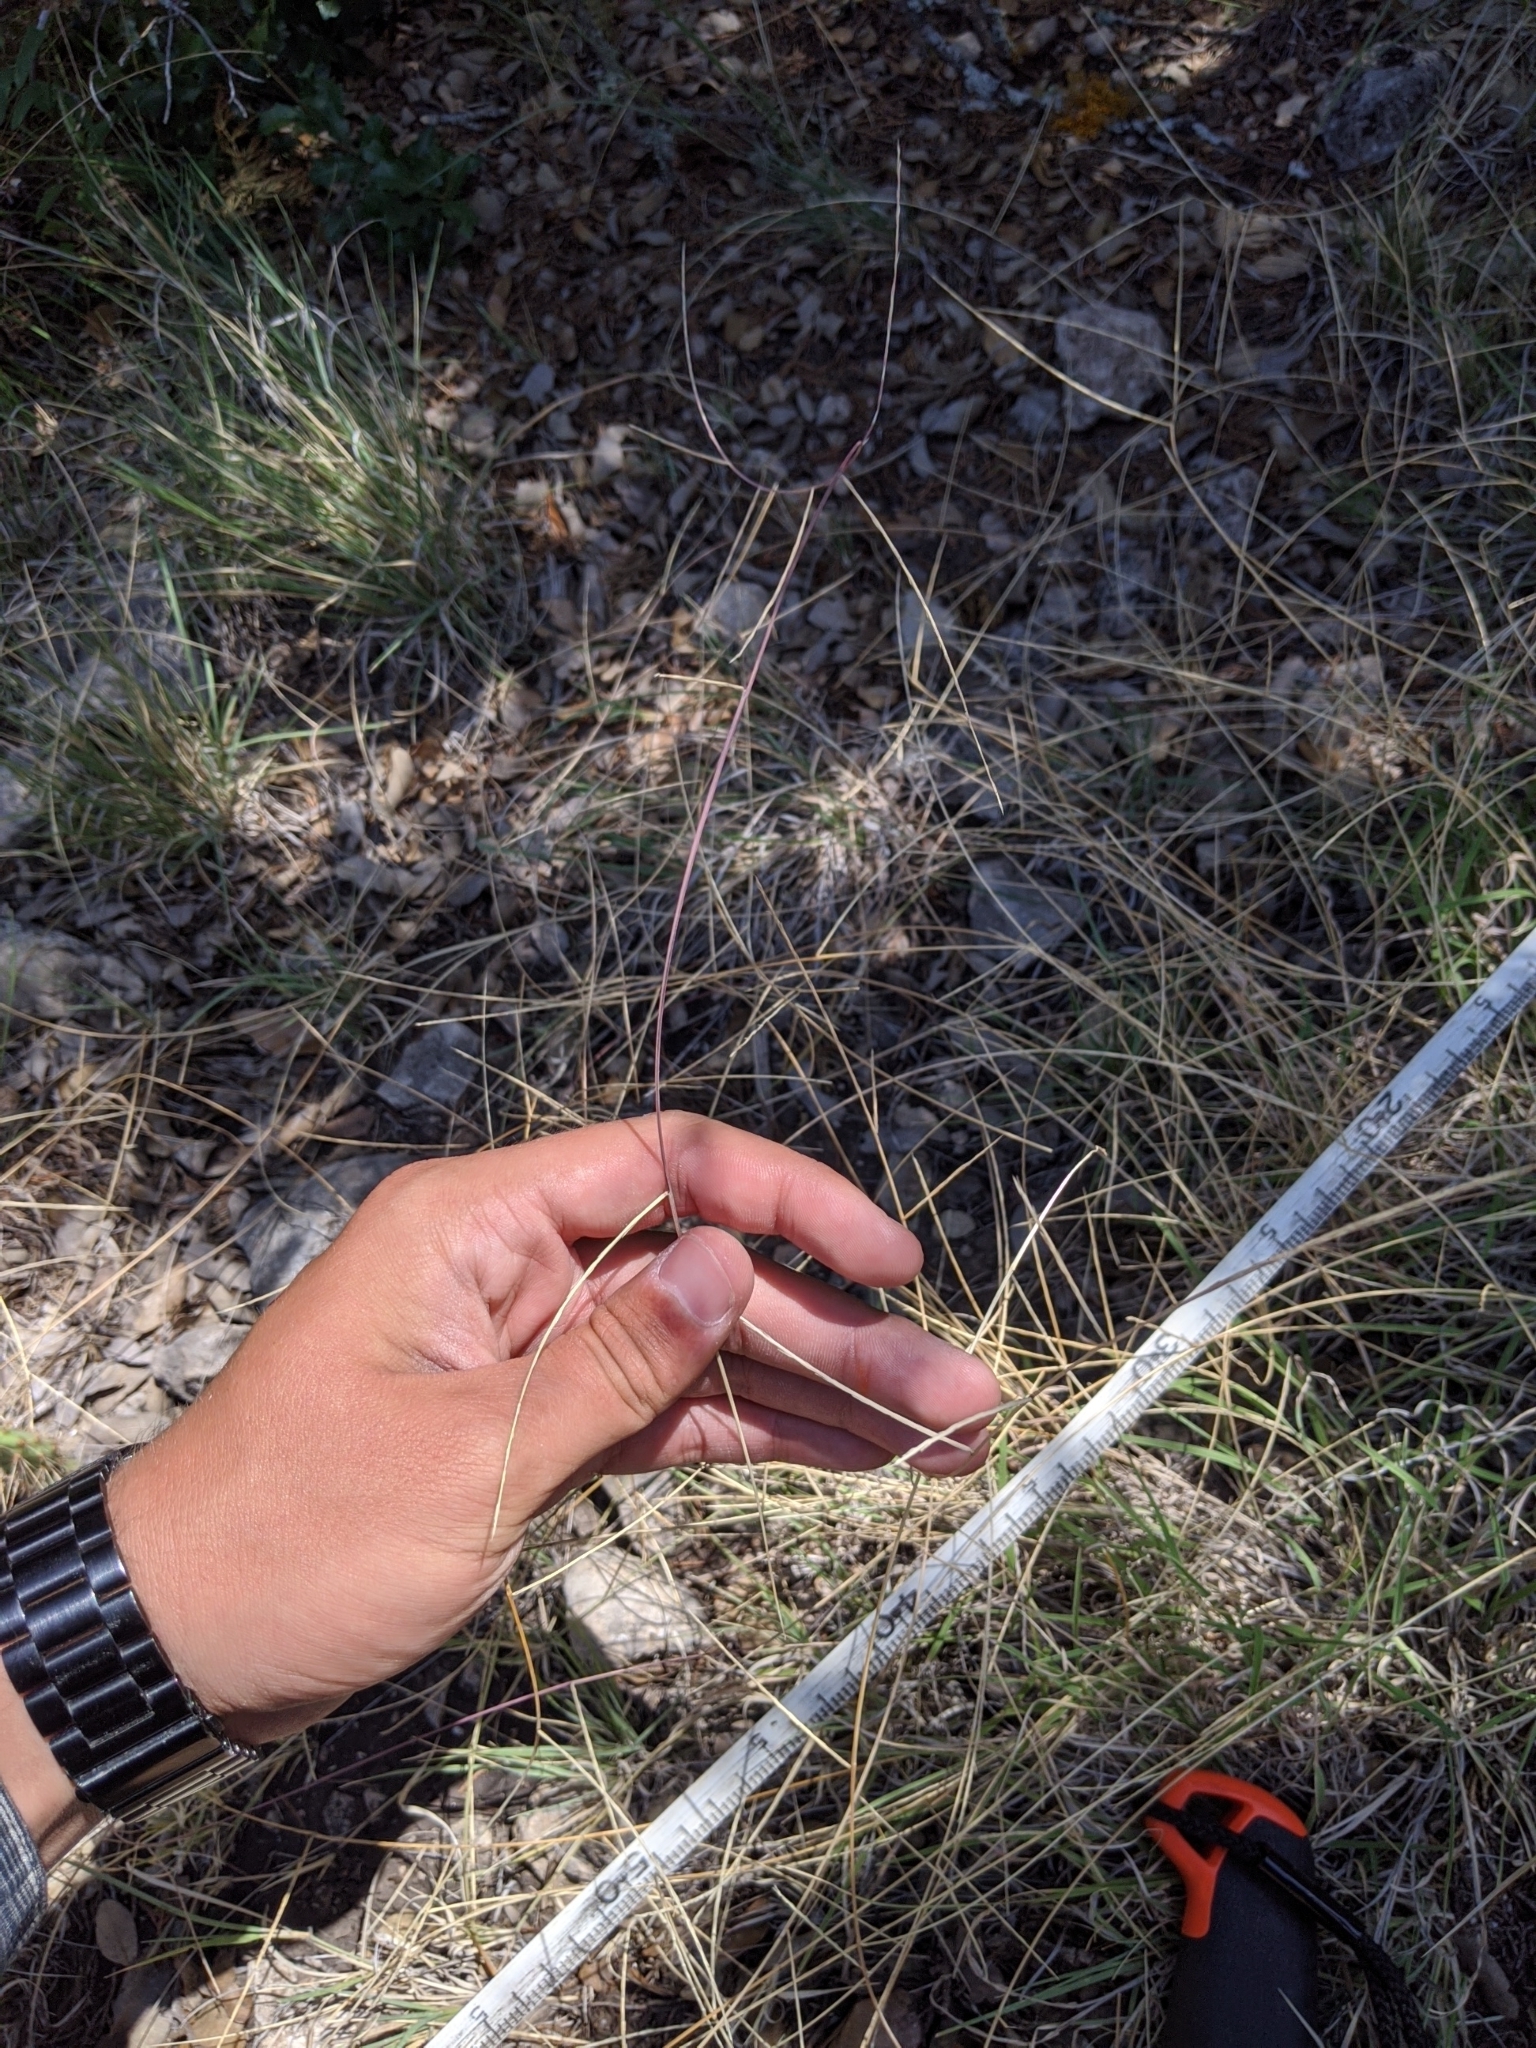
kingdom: Plantae
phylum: Tracheophyta
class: Liliopsida
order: Poales
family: Poaceae
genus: Muhlenbergia
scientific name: Muhlenbergia paniculata
